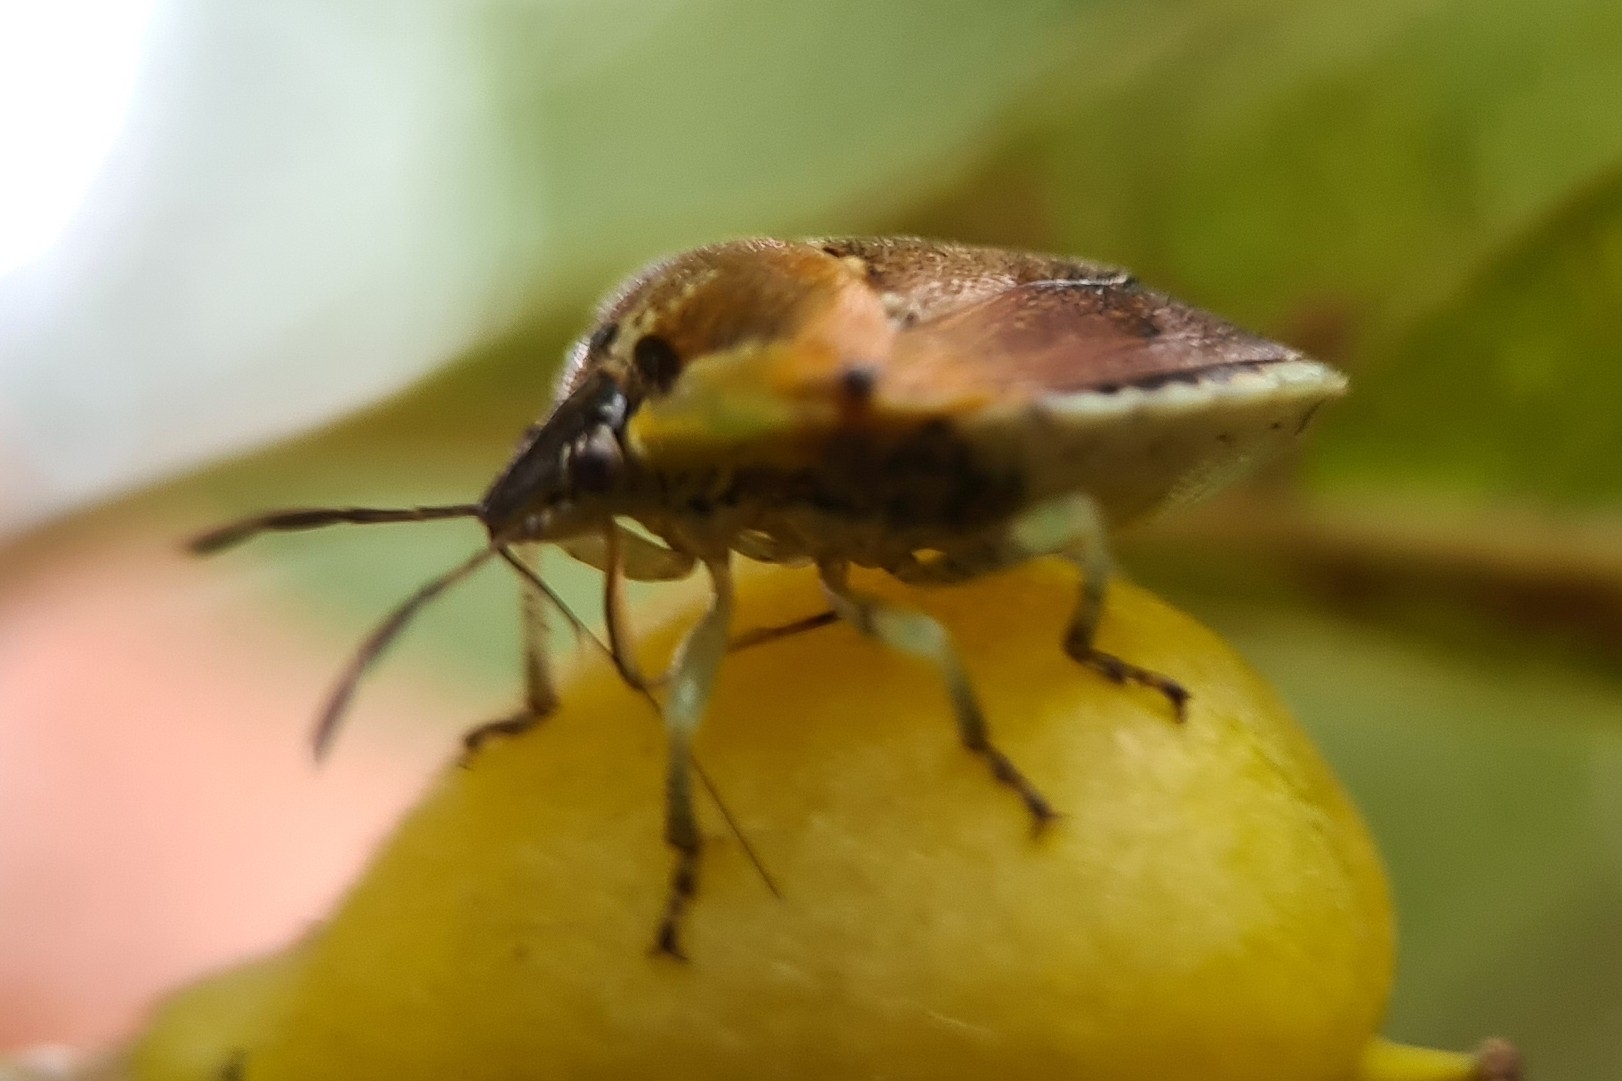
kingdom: Animalia
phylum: Arthropoda
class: Insecta
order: Hemiptera
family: Pentatomidae
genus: Monteithiella
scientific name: Monteithiella
